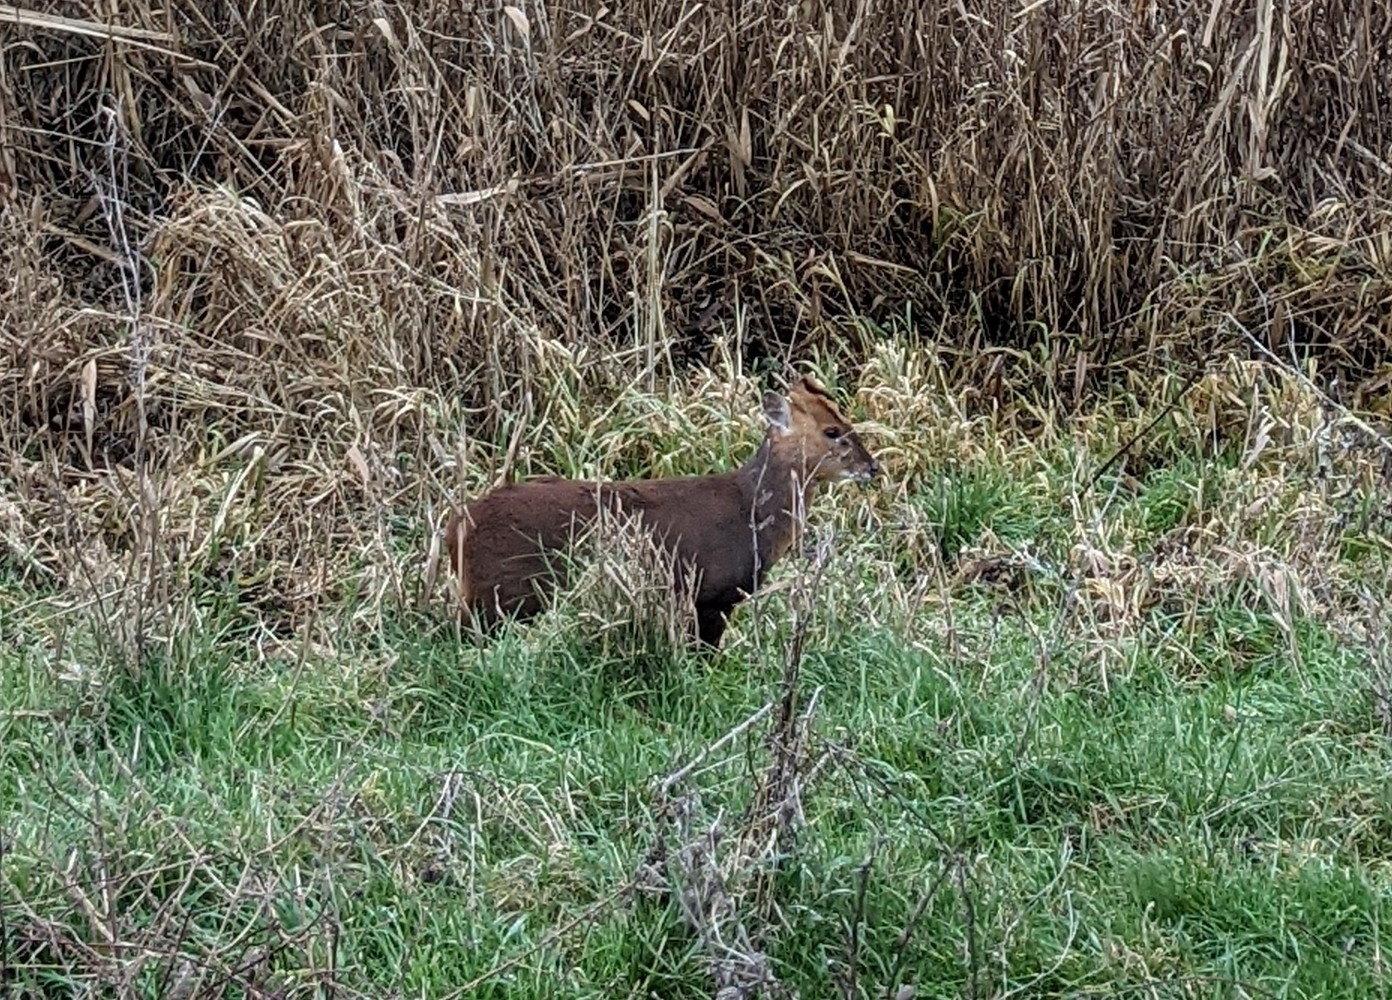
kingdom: Animalia
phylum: Chordata
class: Mammalia
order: Artiodactyla
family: Cervidae
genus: Muntiacus
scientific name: Muntiacus reevesi
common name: Reeves' muntjac
